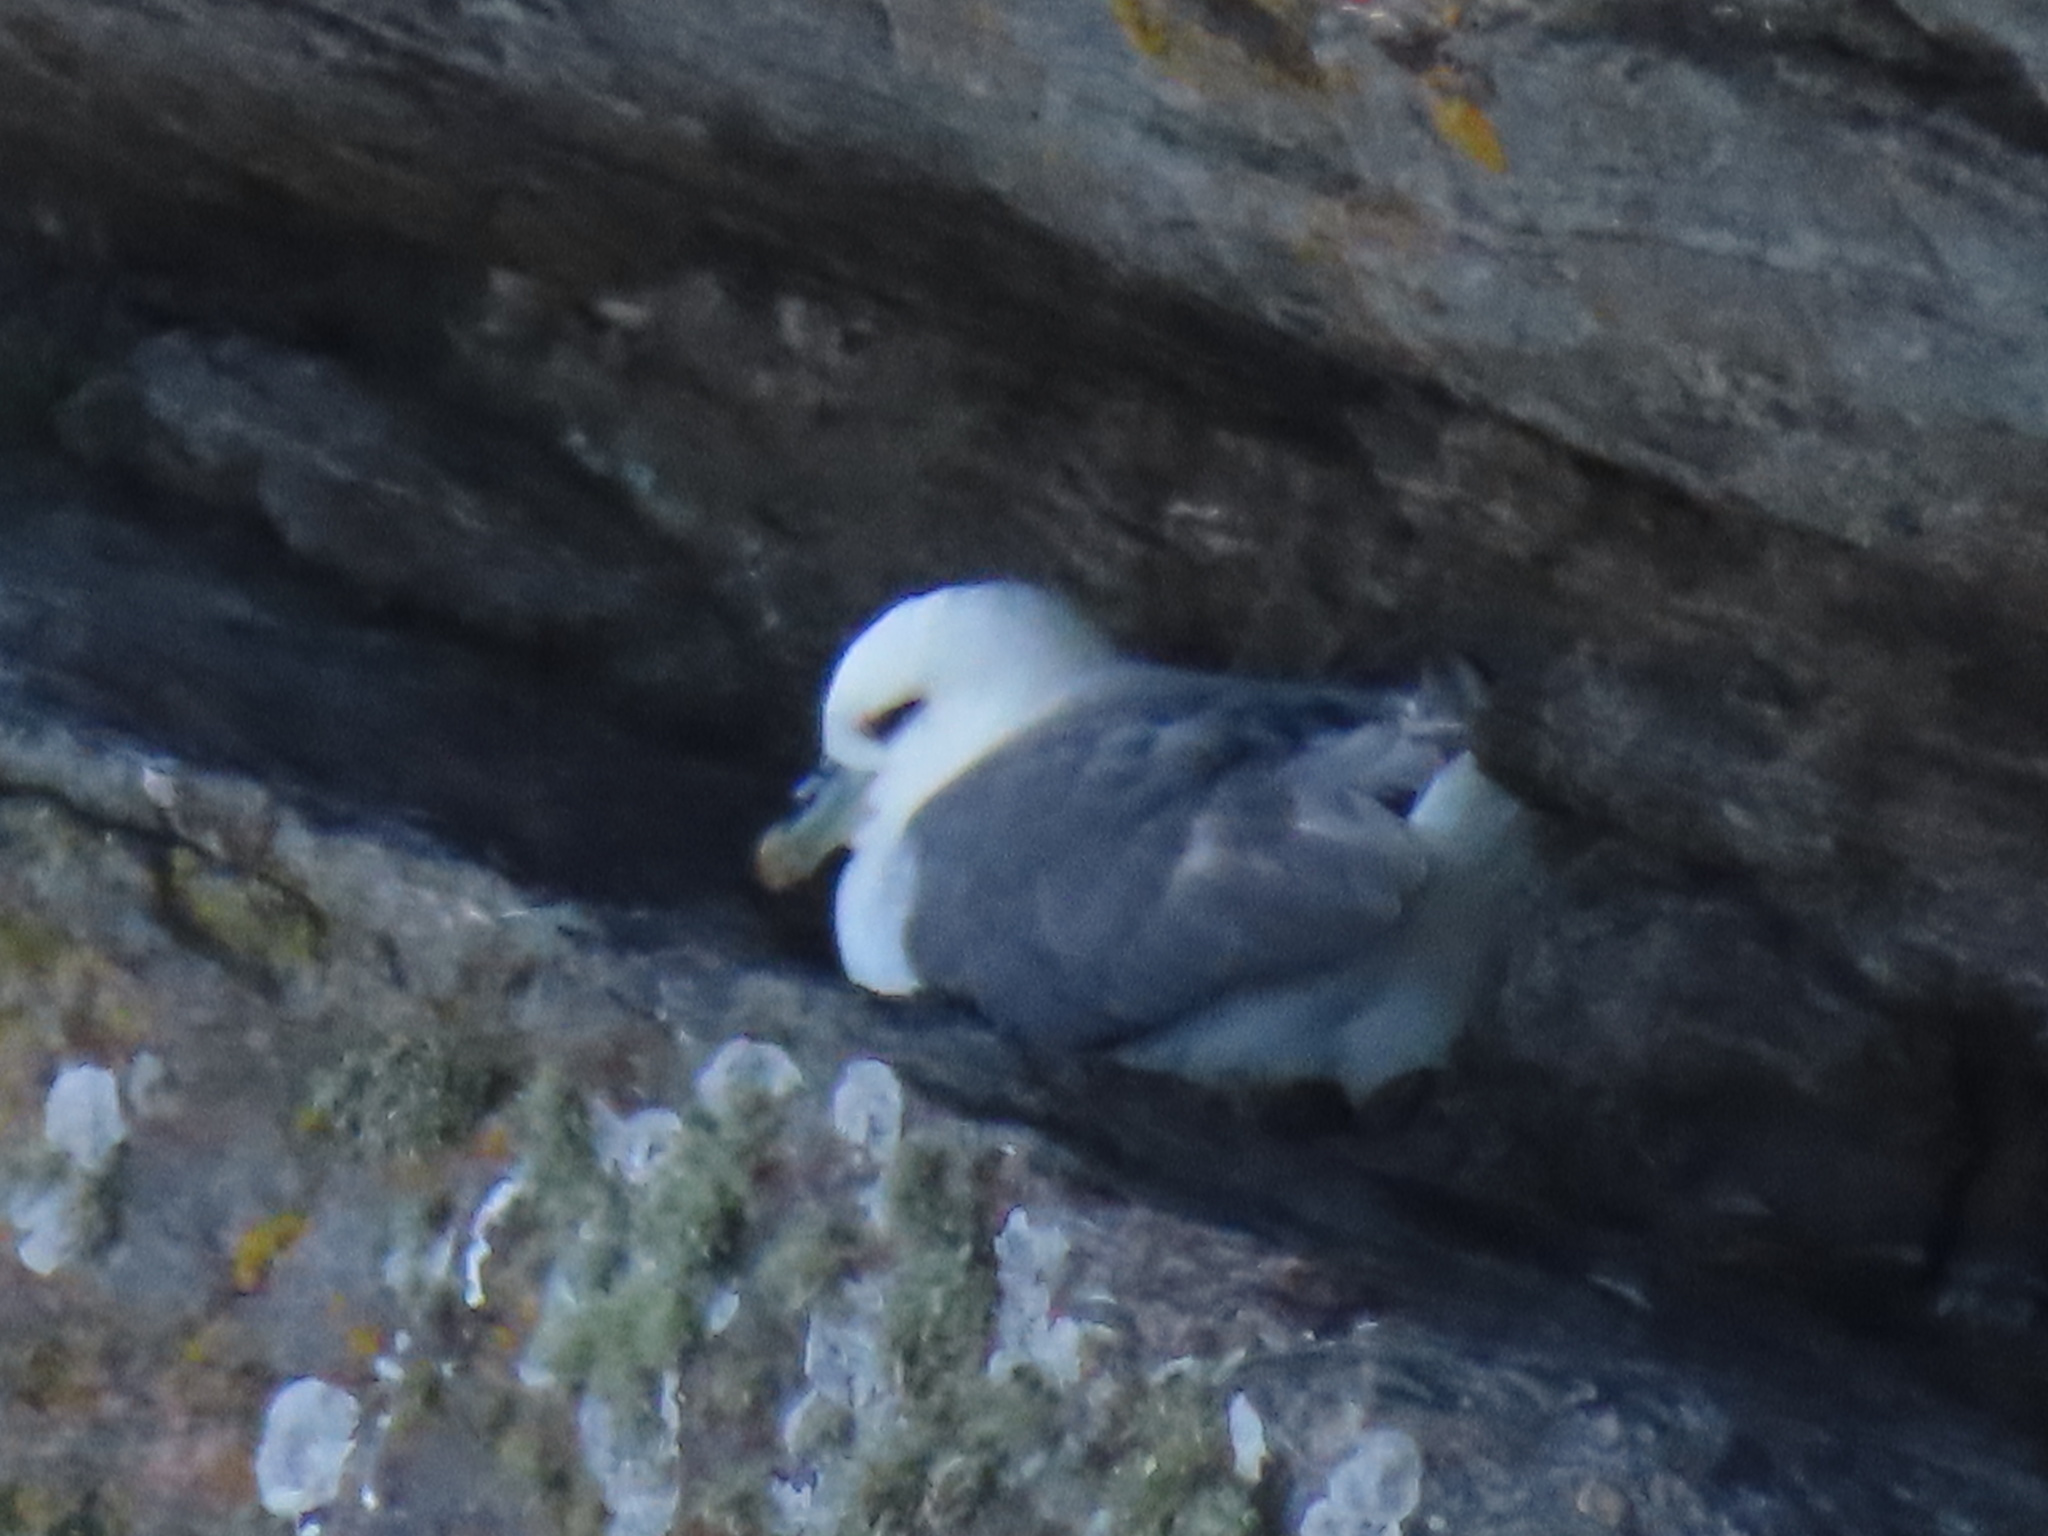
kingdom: Animalia
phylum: Chordata
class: Aves
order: Procellariiformes
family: Procellariidae
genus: Fulmarus
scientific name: Fulmarus glacialis
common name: Northern fulmar
